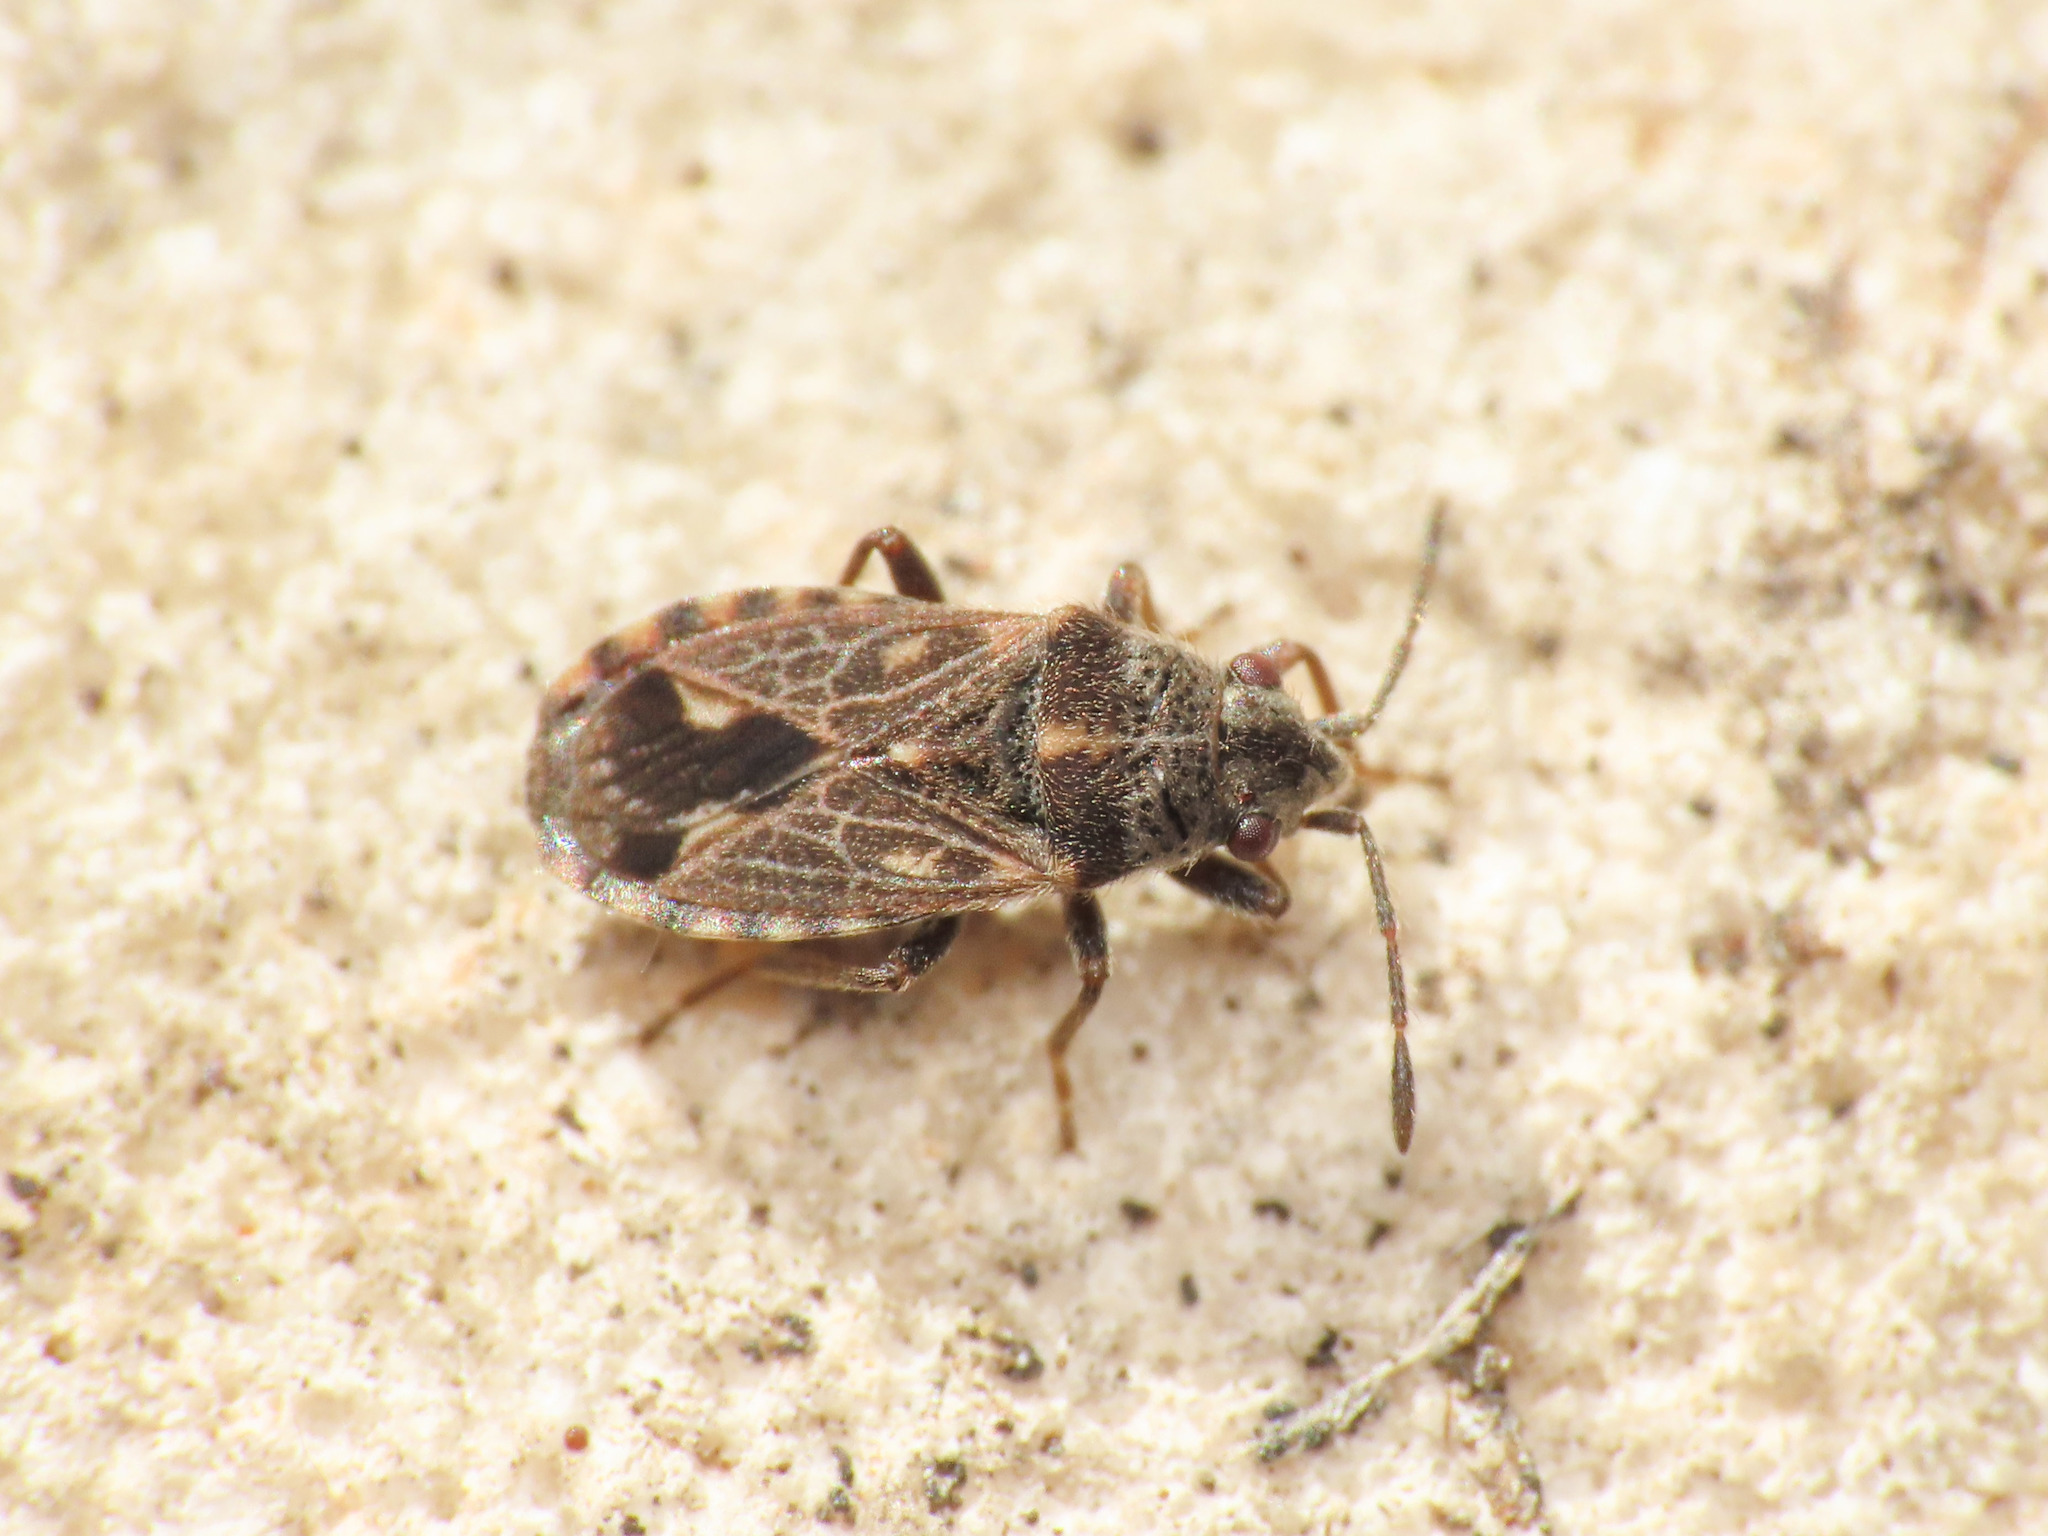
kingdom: Animalia
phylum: Arthropoda
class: Insecta
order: Hemiptera
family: Lygaeidae
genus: Lygaeosoma
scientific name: Lygaeosoma sardeum
